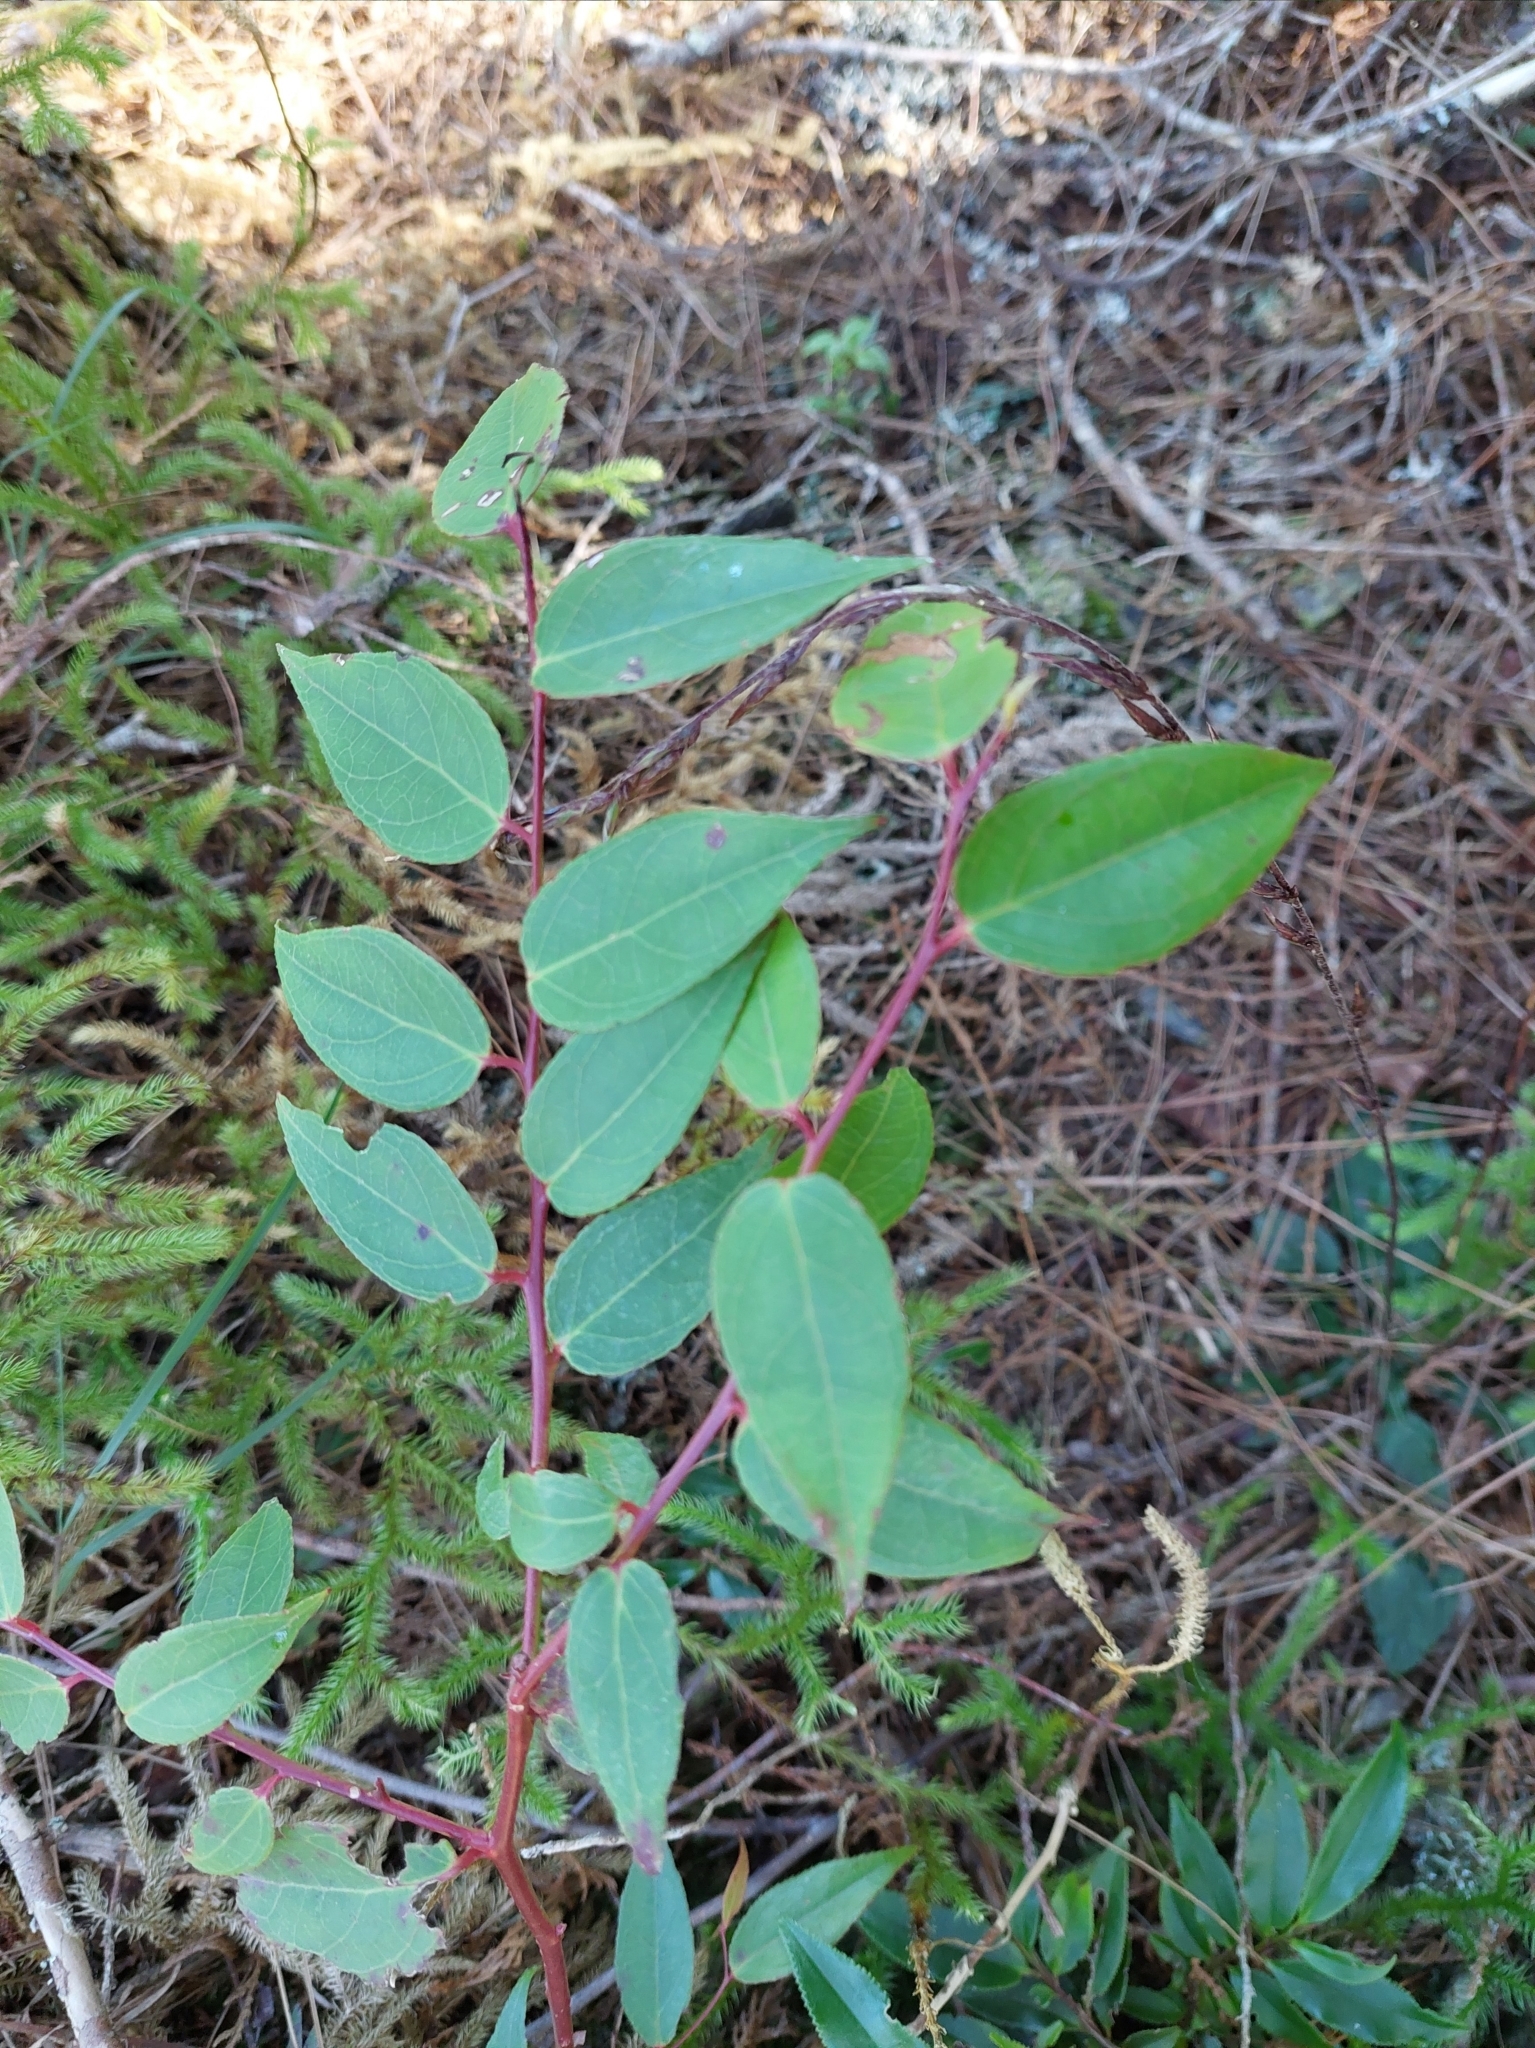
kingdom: Plantae
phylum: Tracheophyta
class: Magnoliopsida
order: Ericales
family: Ericaceae
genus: Gaultheria
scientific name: Gaultheria leucocarpa
